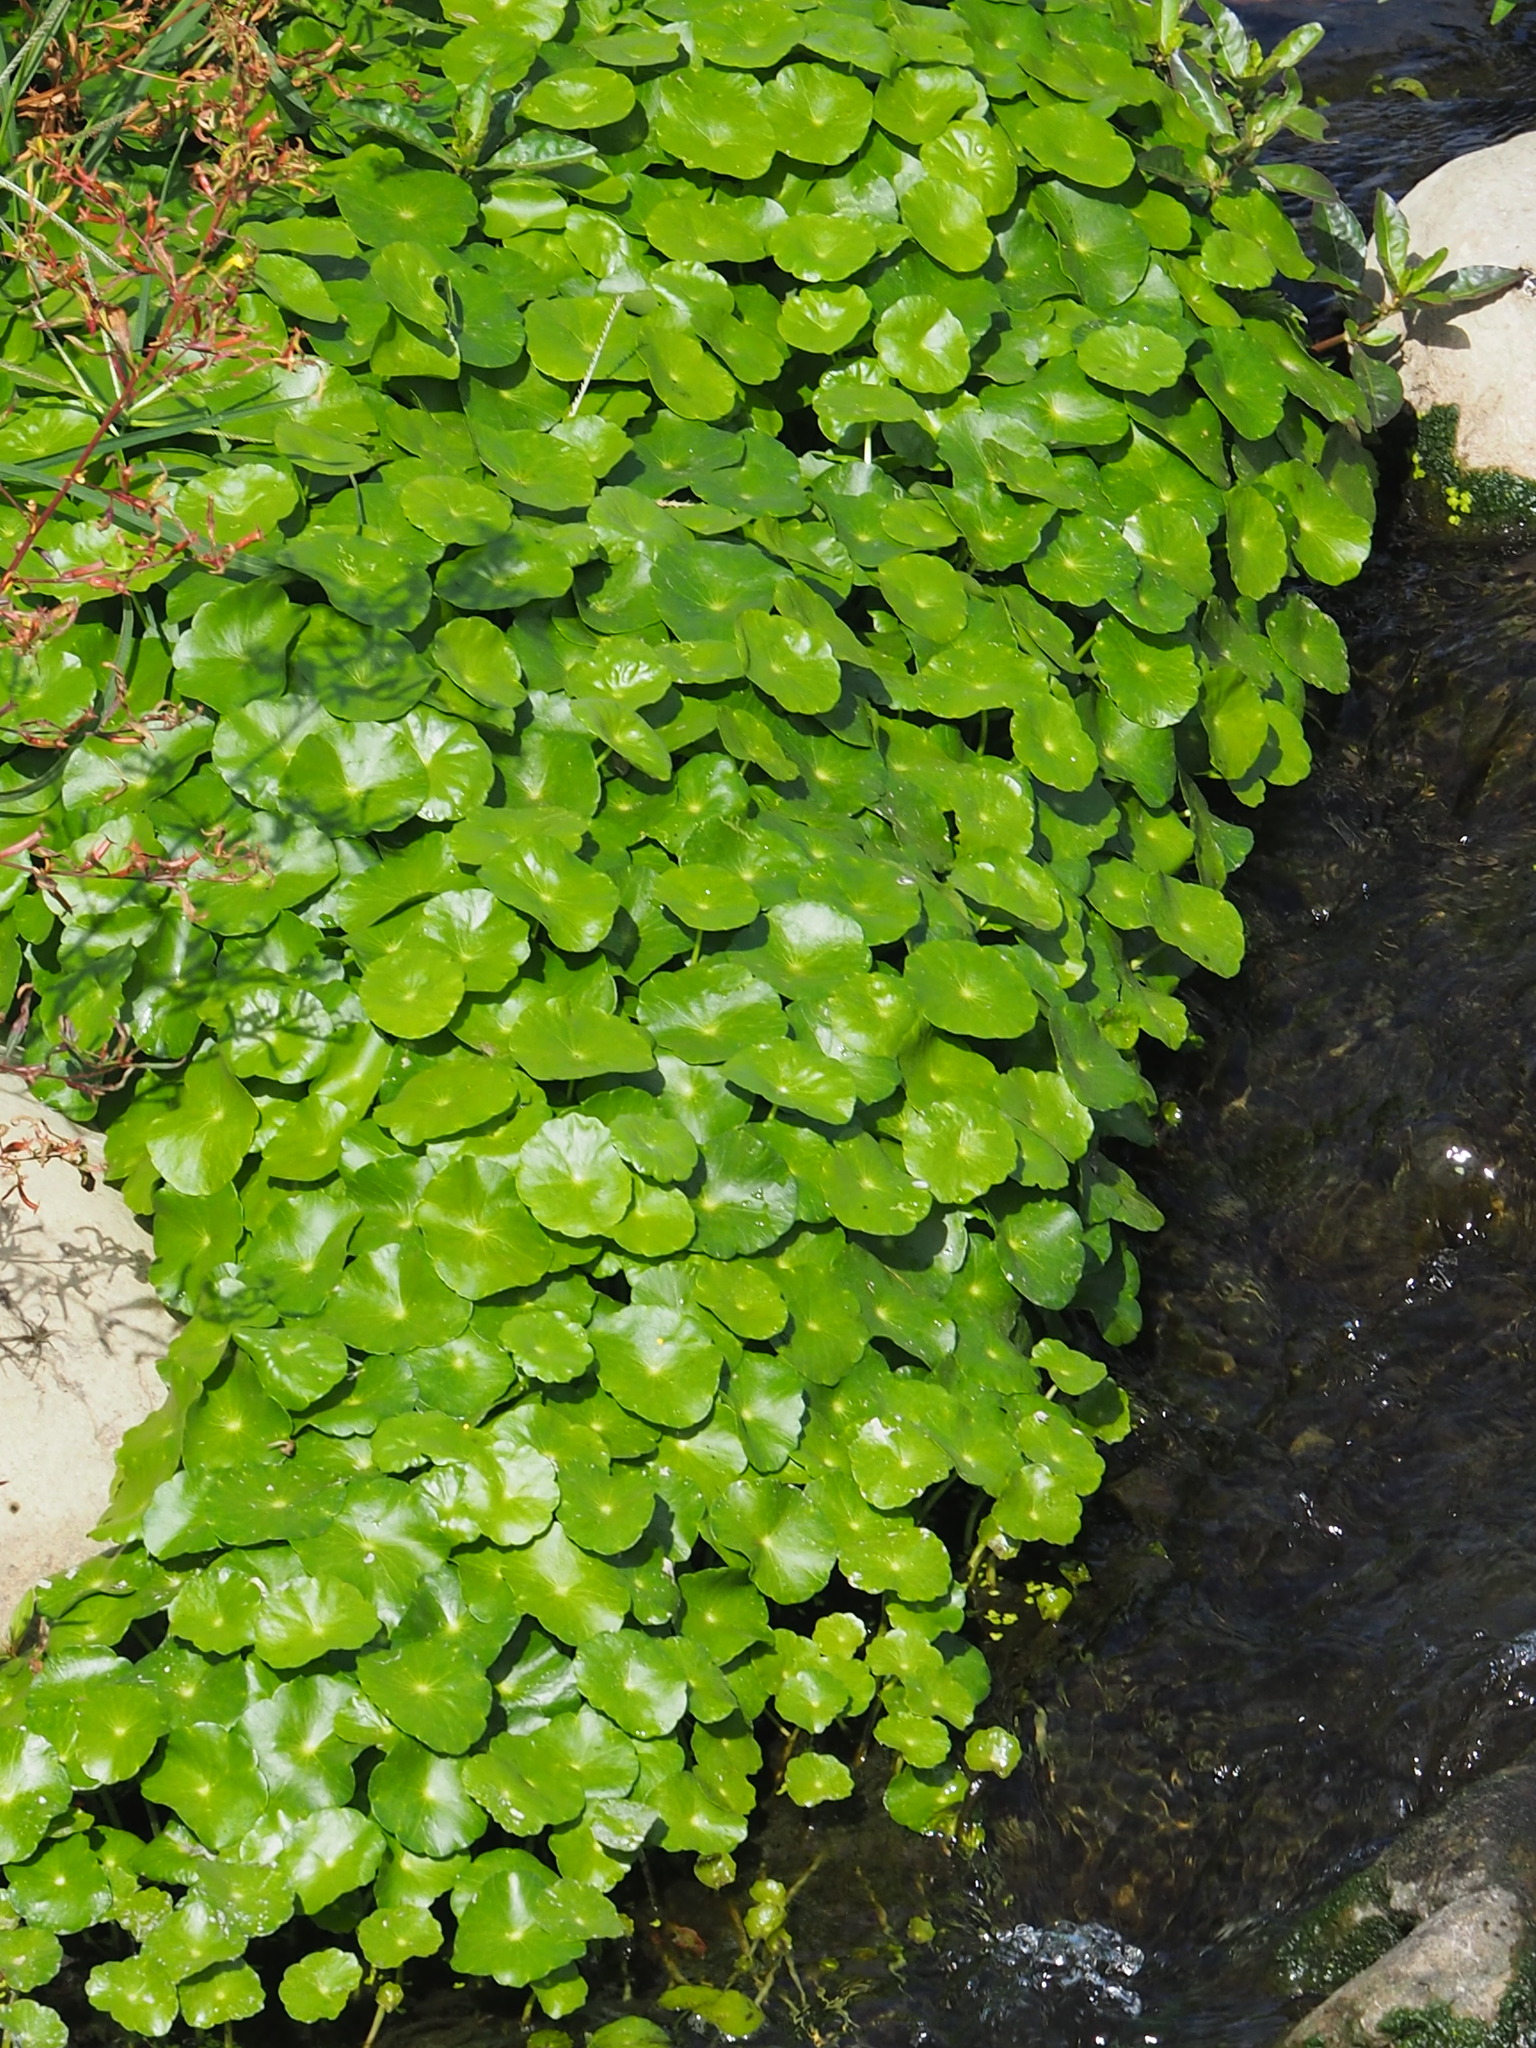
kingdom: Plantae
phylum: Tracheophyta
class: Magnoliopsida
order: Apiales
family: Araliaceae
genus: Hydrocotyle
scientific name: Hydrocotyle verticillata
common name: Whorled marshpennywort
